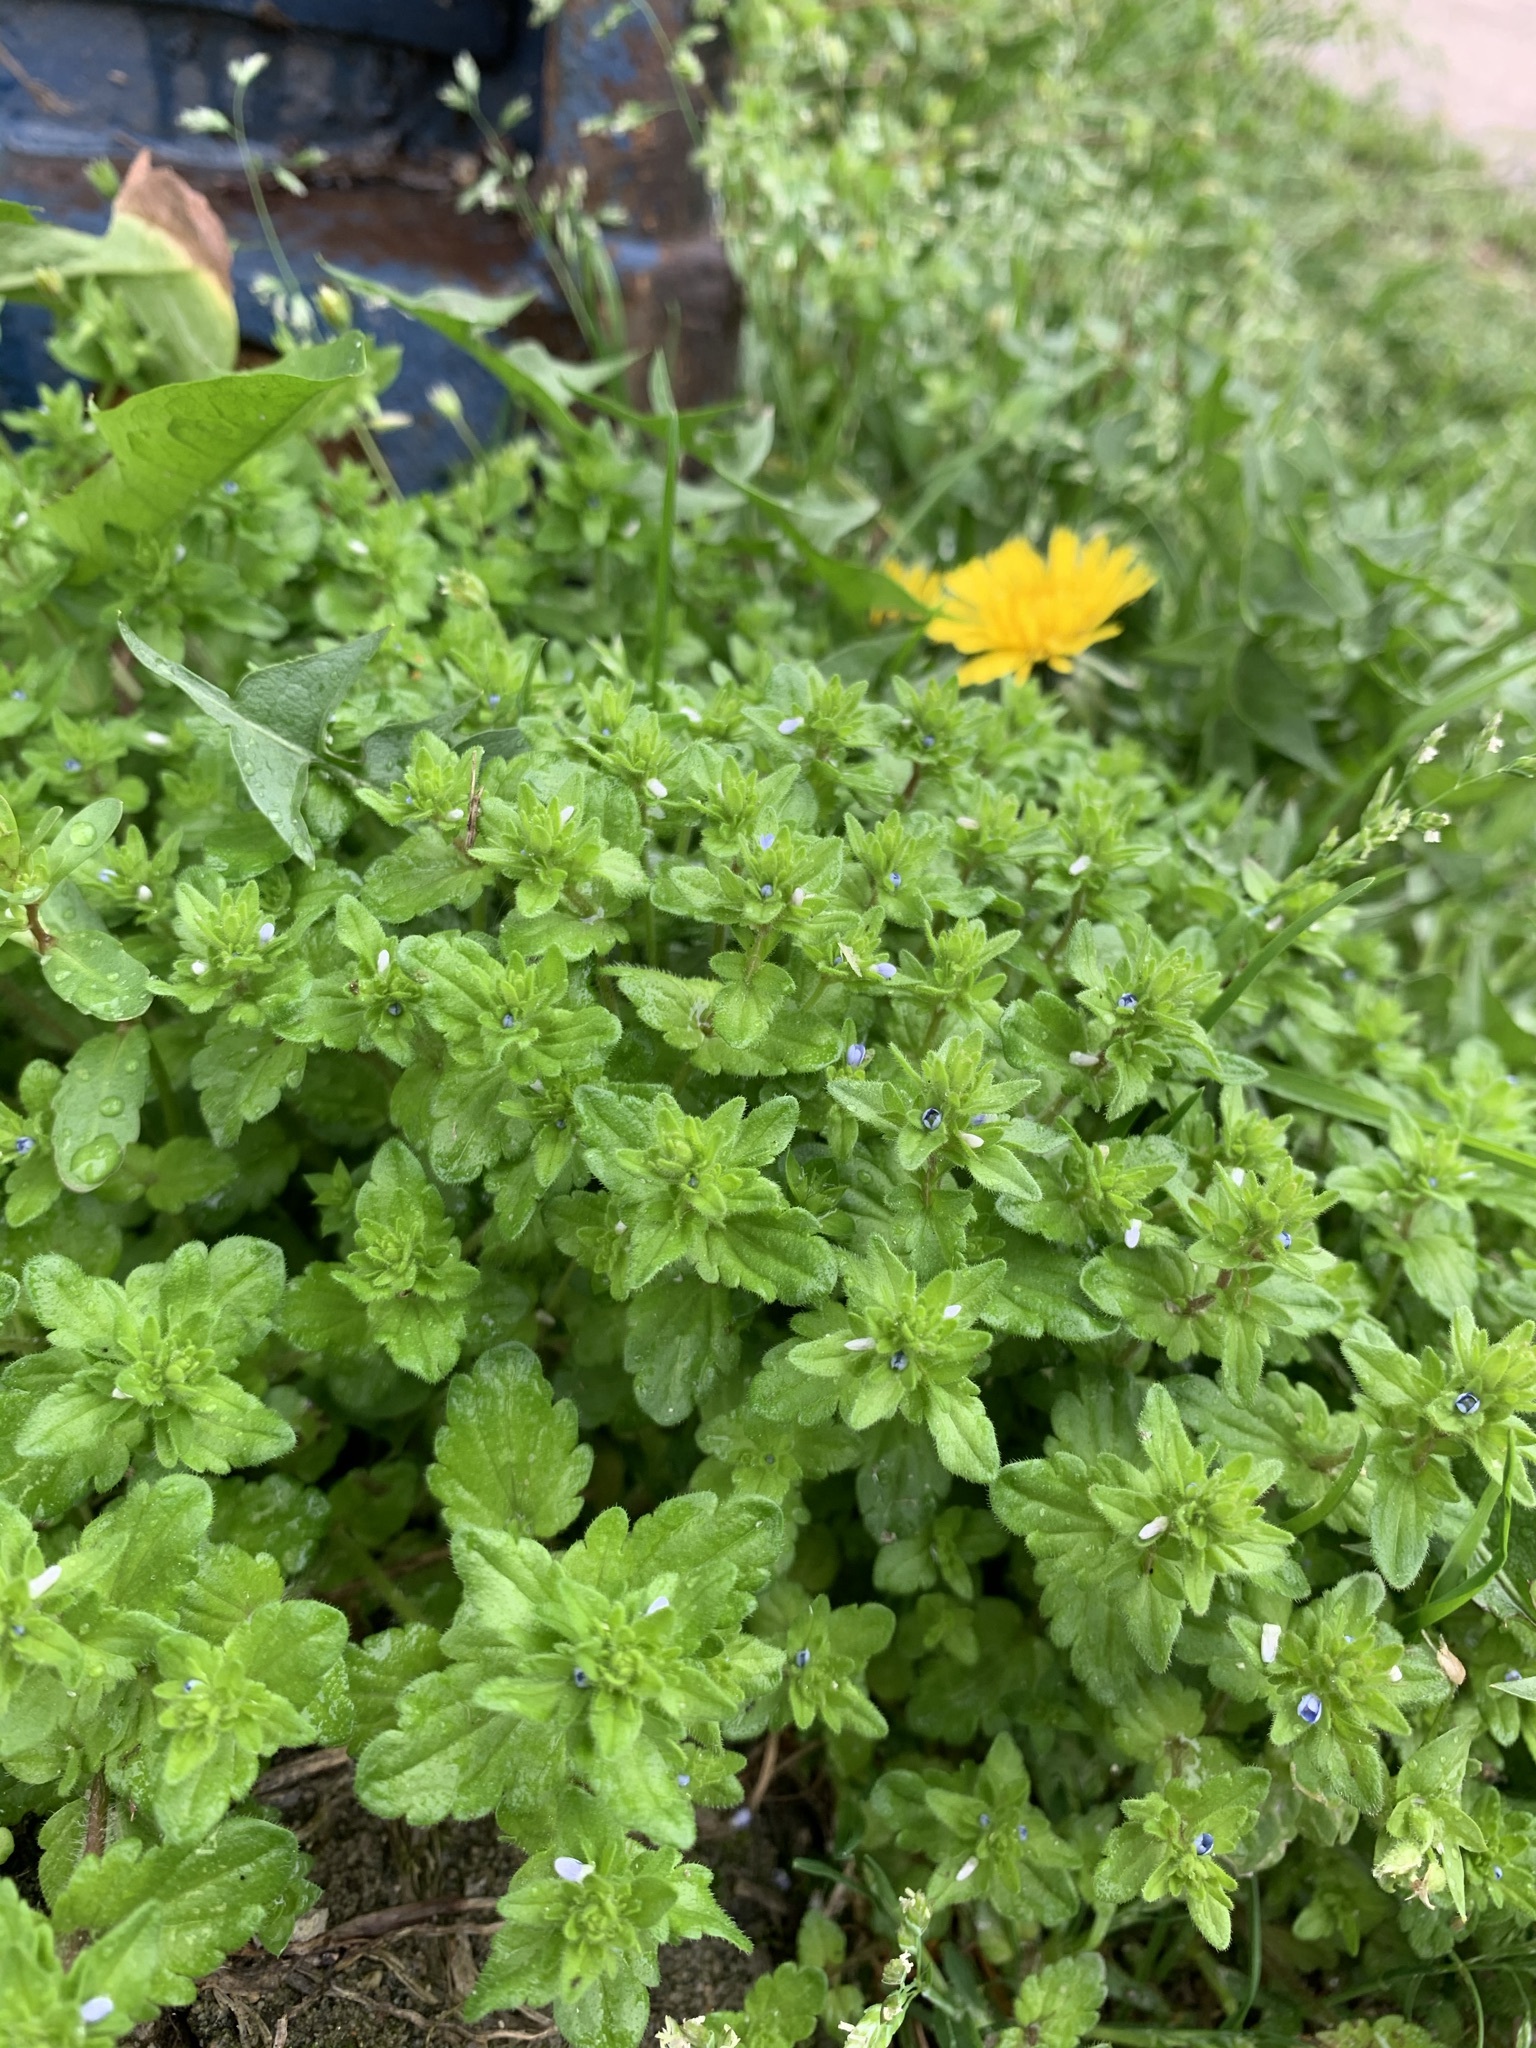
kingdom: Plantae
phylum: Tracheophyta
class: Magnoliopsida
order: Lamiales
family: Plantaginaceae
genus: Veronica
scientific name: Veronica arvensis
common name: Corn speedwell
